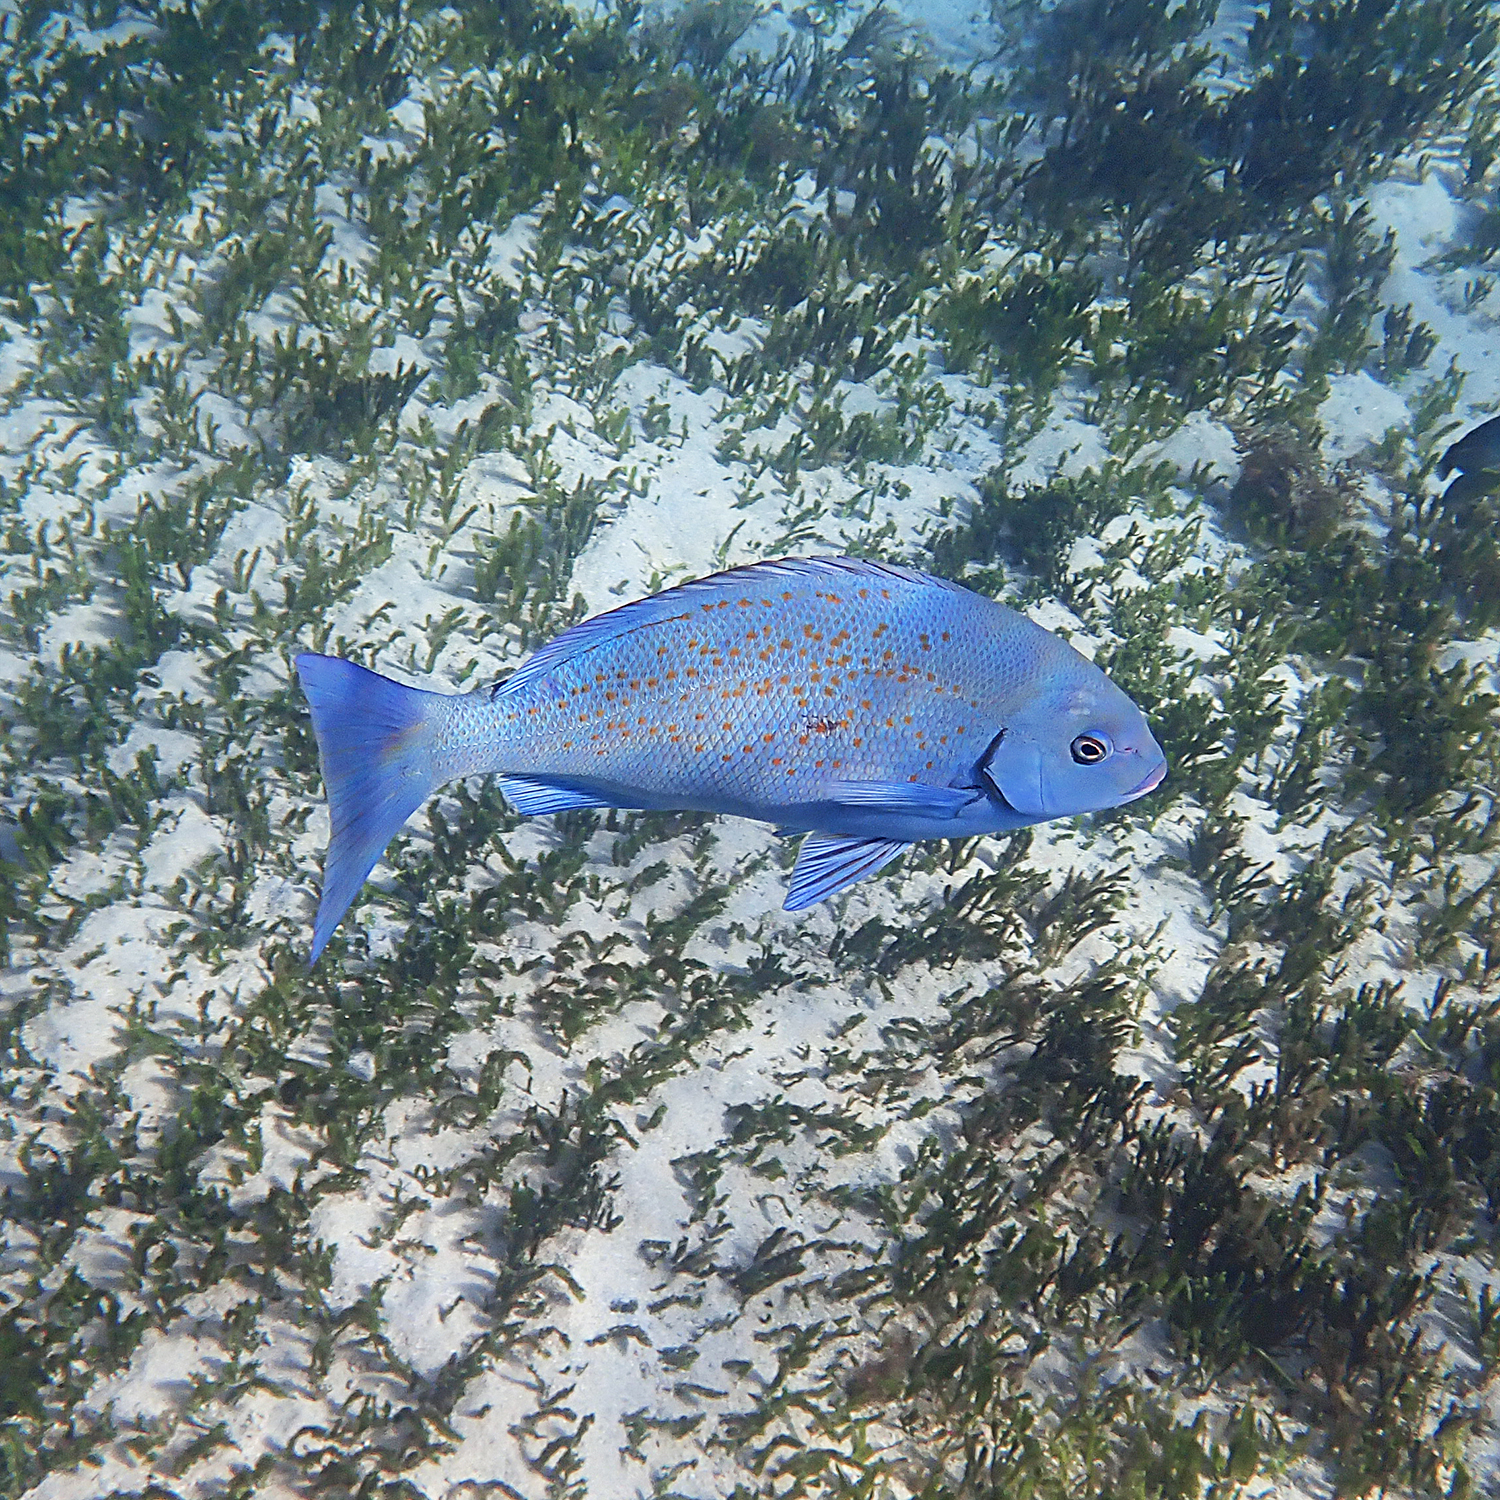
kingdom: Animalia
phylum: Chordata
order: Perciformes
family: Kyphosidae
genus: Girella
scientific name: Girella cyanea
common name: Bluefish
